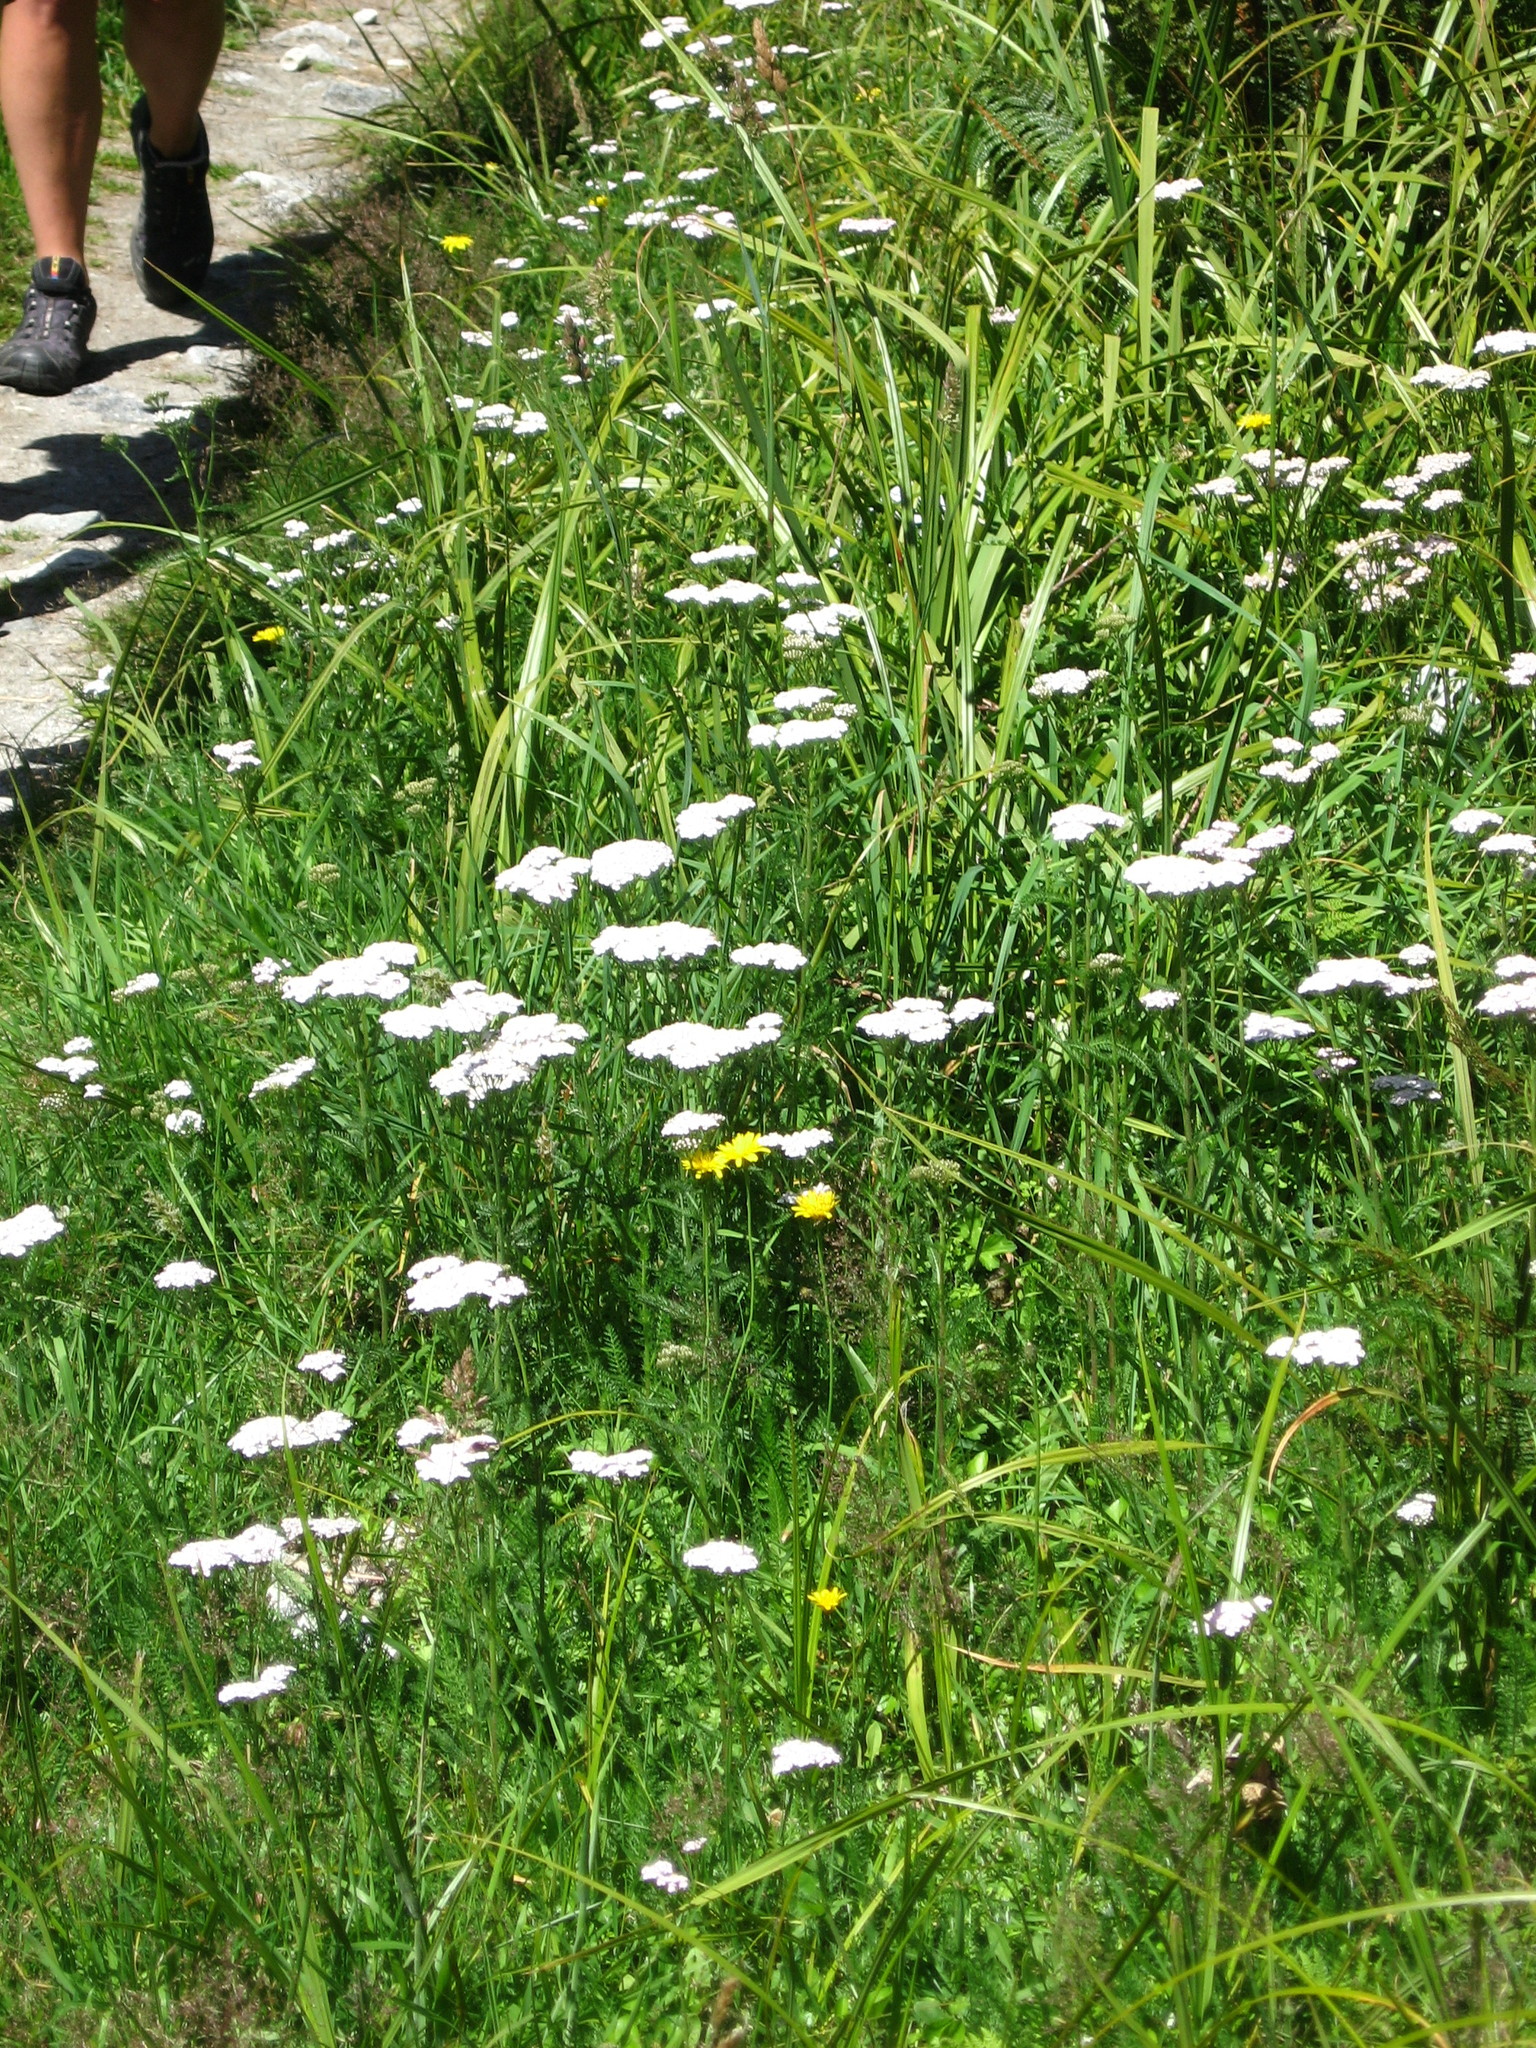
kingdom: Plantae
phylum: Tracheophyta
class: Magnoliopsida
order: Asterales
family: Asteraceae
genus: Achillea
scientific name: Achillea millefolium
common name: Yarrow
